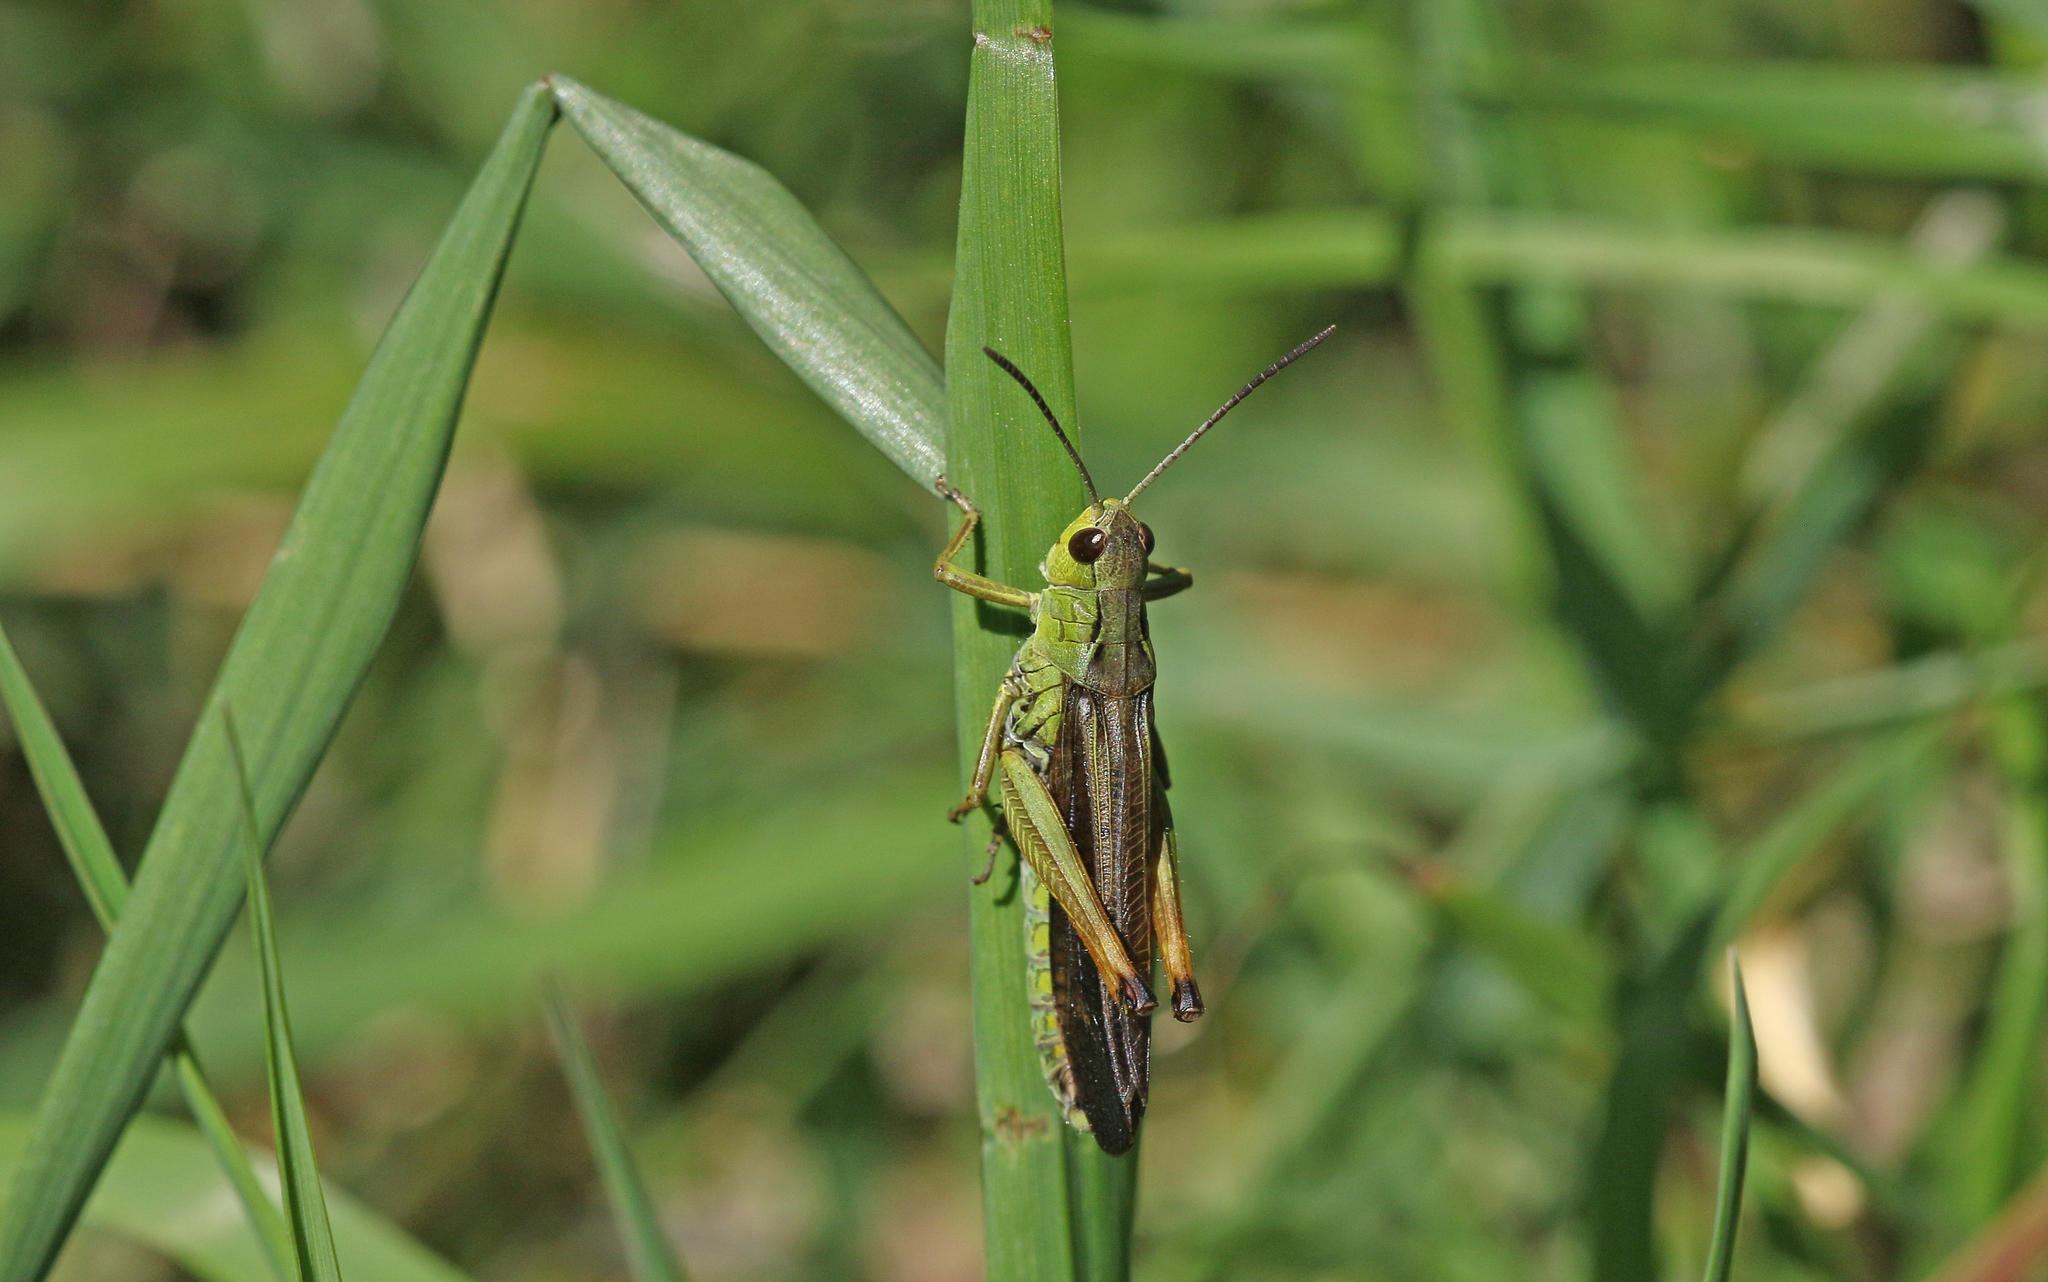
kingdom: Animalia
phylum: Arthropoda
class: Insecta
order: Orthoptera
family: Acrididae
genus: Stauroderus
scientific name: Stauroderus scalaris
